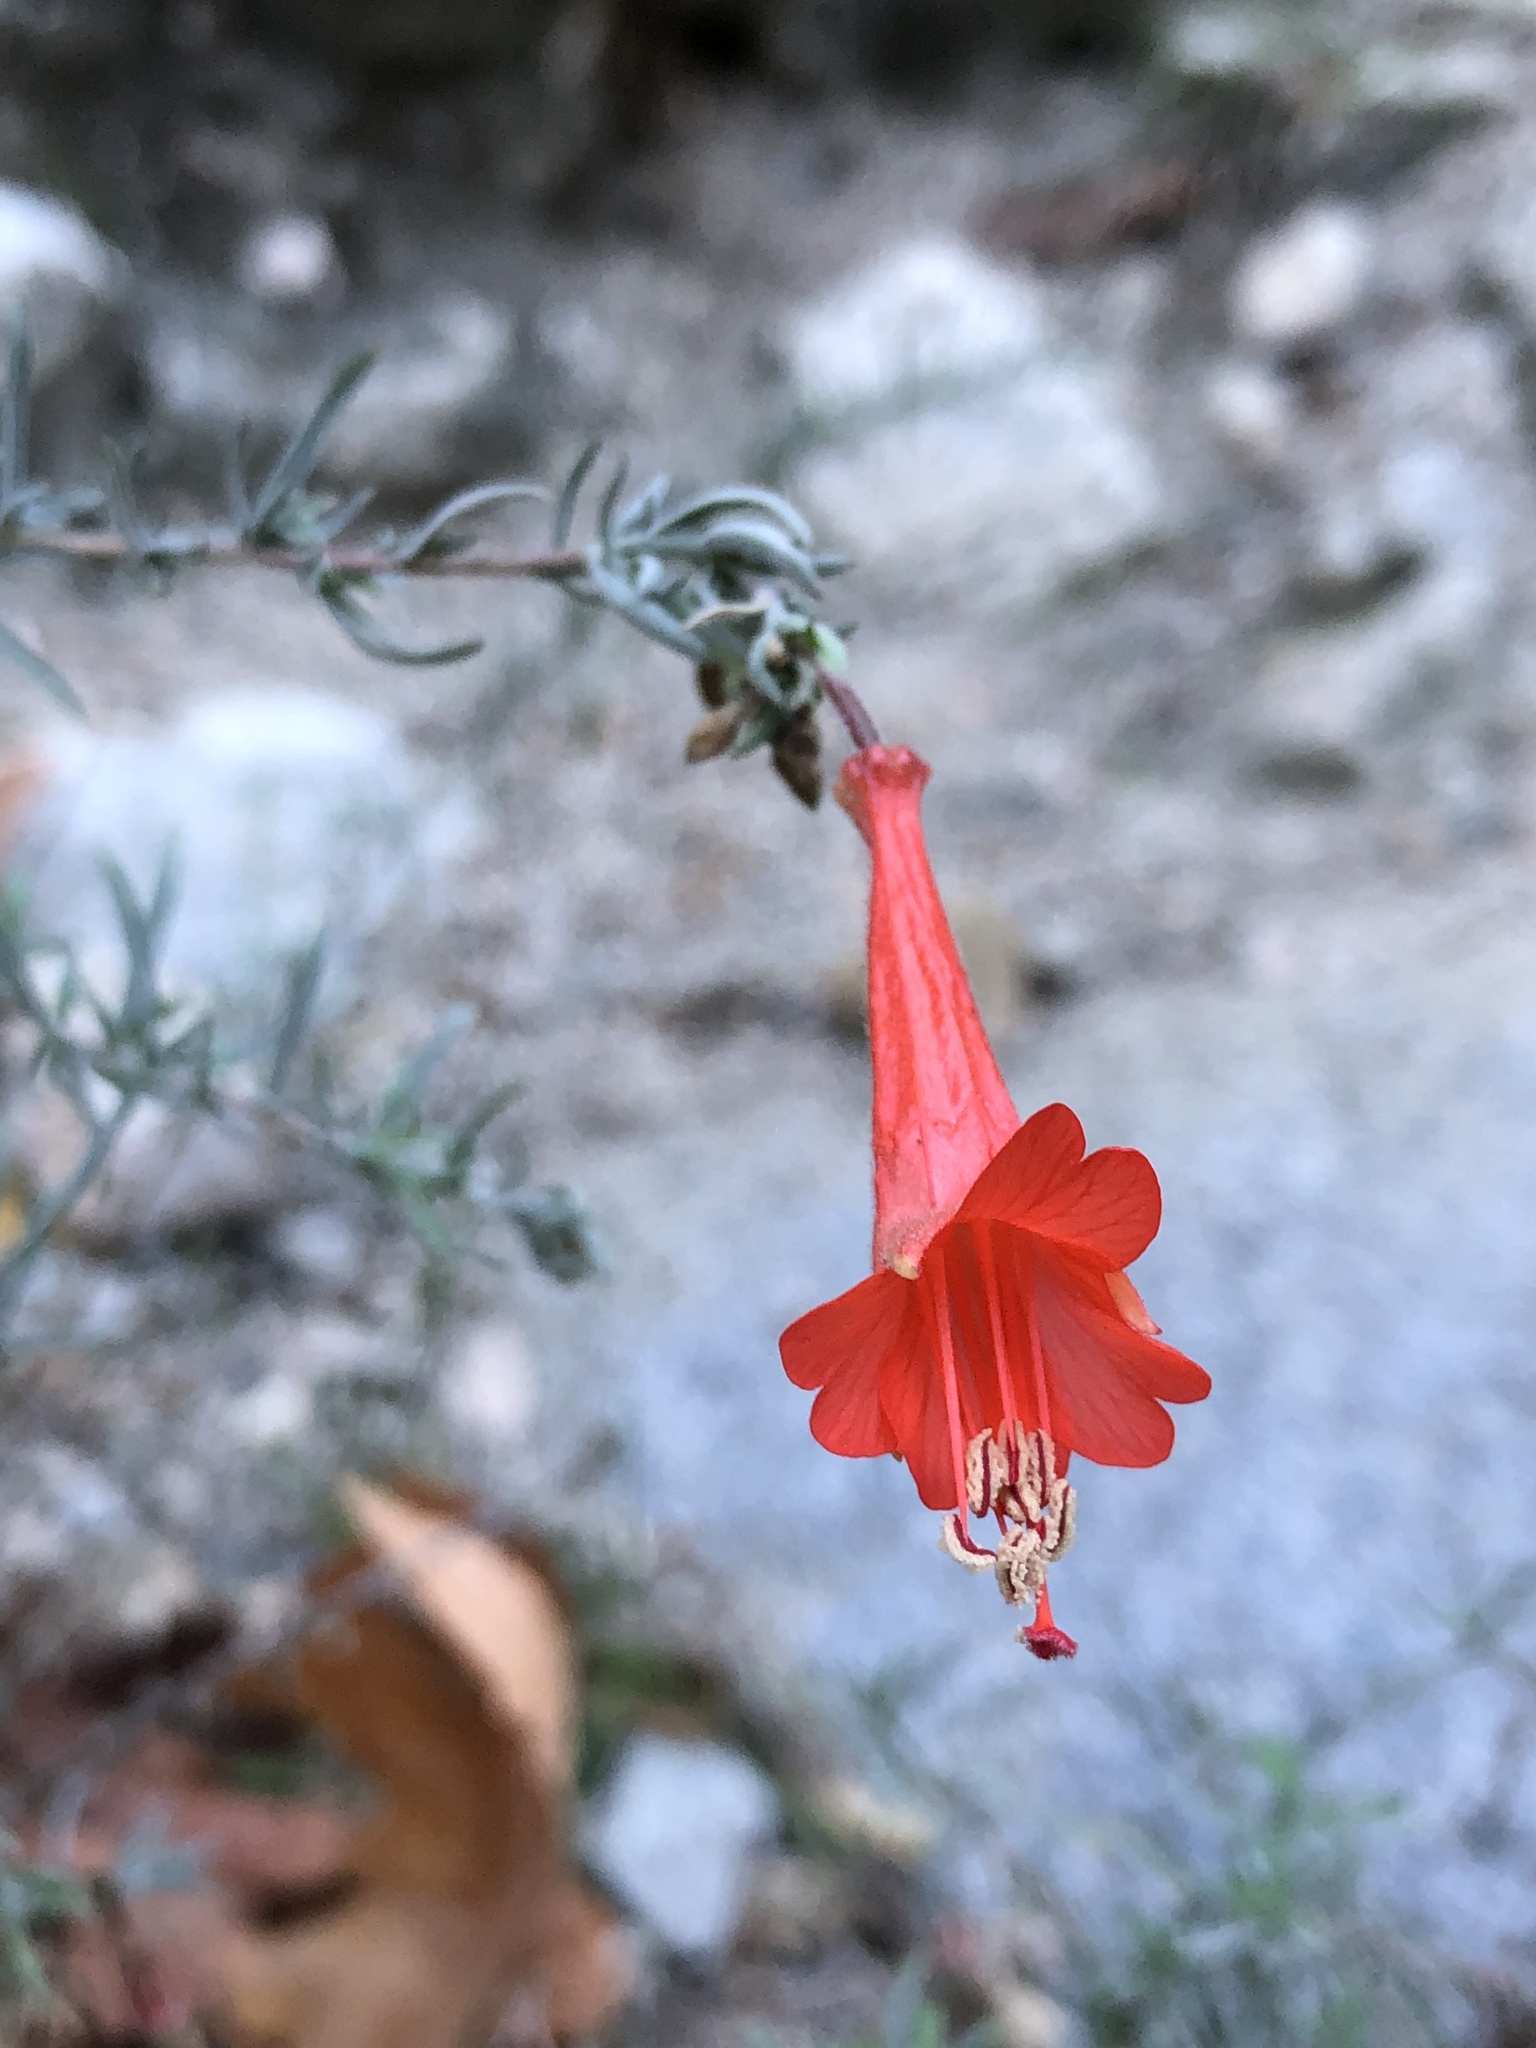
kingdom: Plantae
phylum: Tracheophyta
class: Magnoliopsida
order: Myrtales
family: Onagraceae
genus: Epilobium
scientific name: Epilobium canum
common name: California-fuchsia
